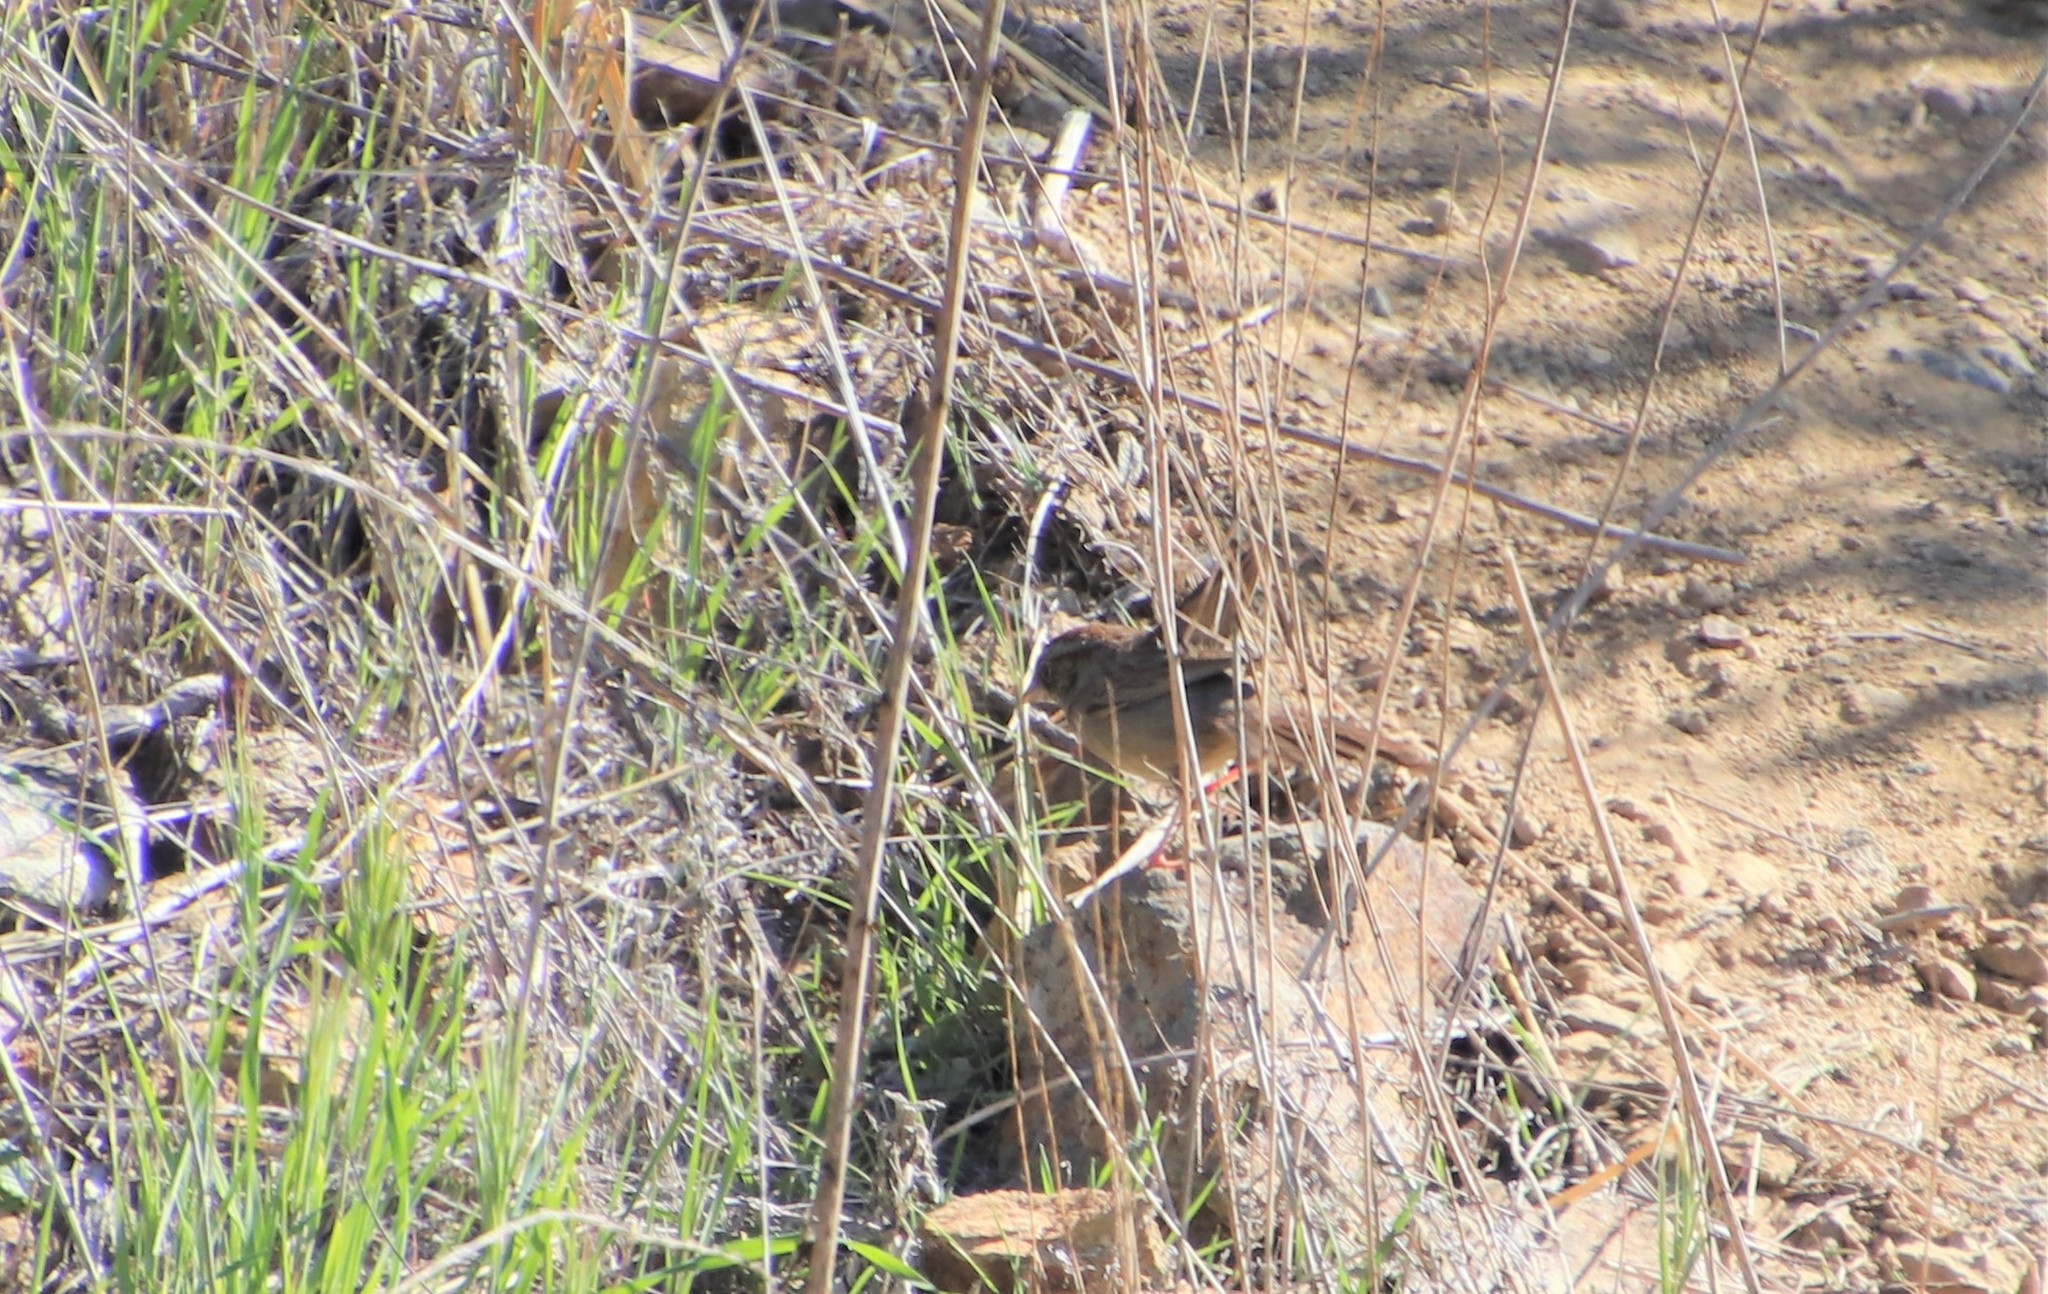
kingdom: Animalia
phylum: Chordata
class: Aves
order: Passeriformes
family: Passerellidae
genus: Aimophila
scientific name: Aimophila ruficeps
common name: Rufous-crowned sparrow
